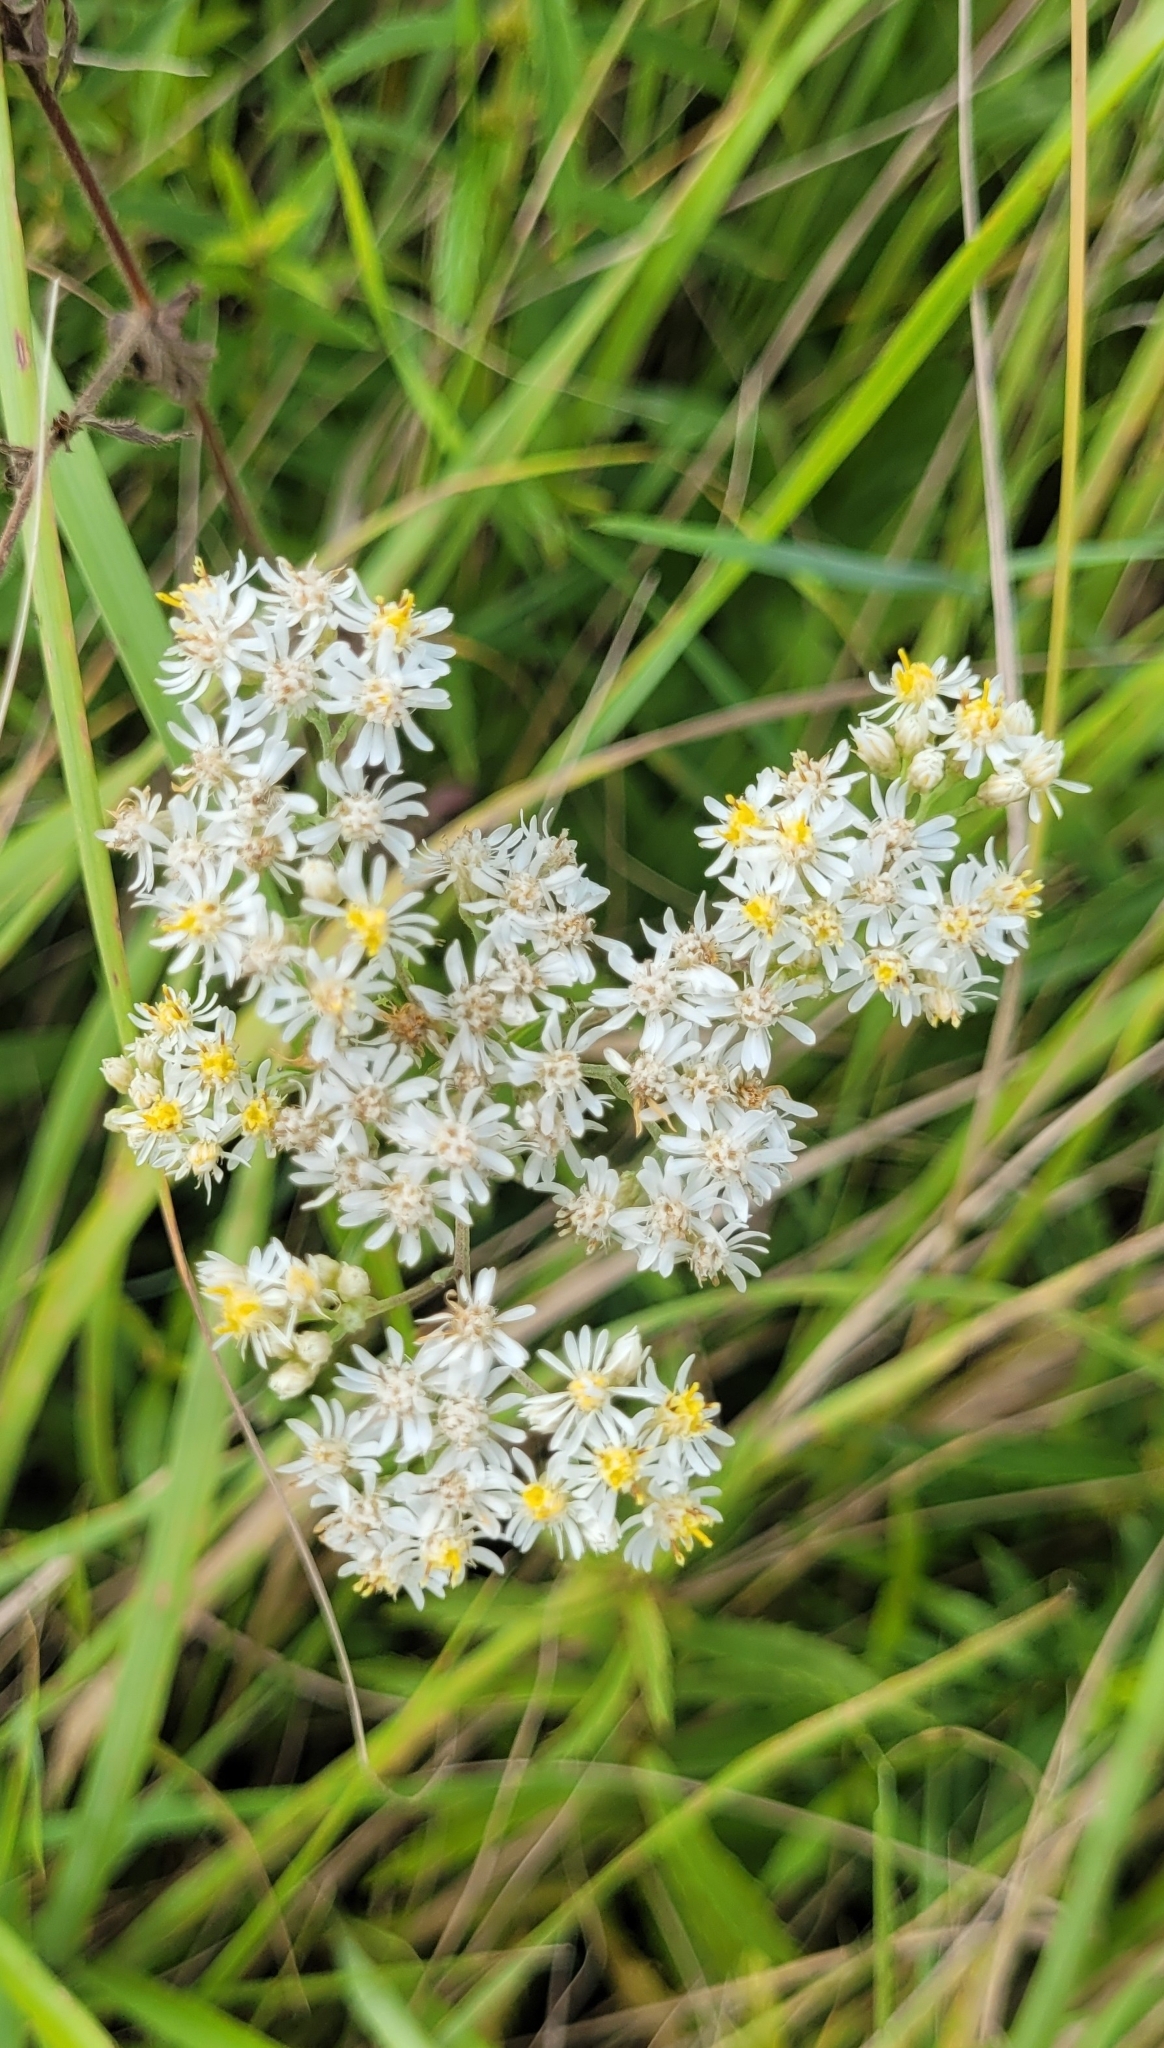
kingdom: Plantae
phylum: Tracheophyta
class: Magnoliopsida
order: Asterales
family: Asteraceae
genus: Turczaninovia
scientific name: Turczaninovia fastigiata
